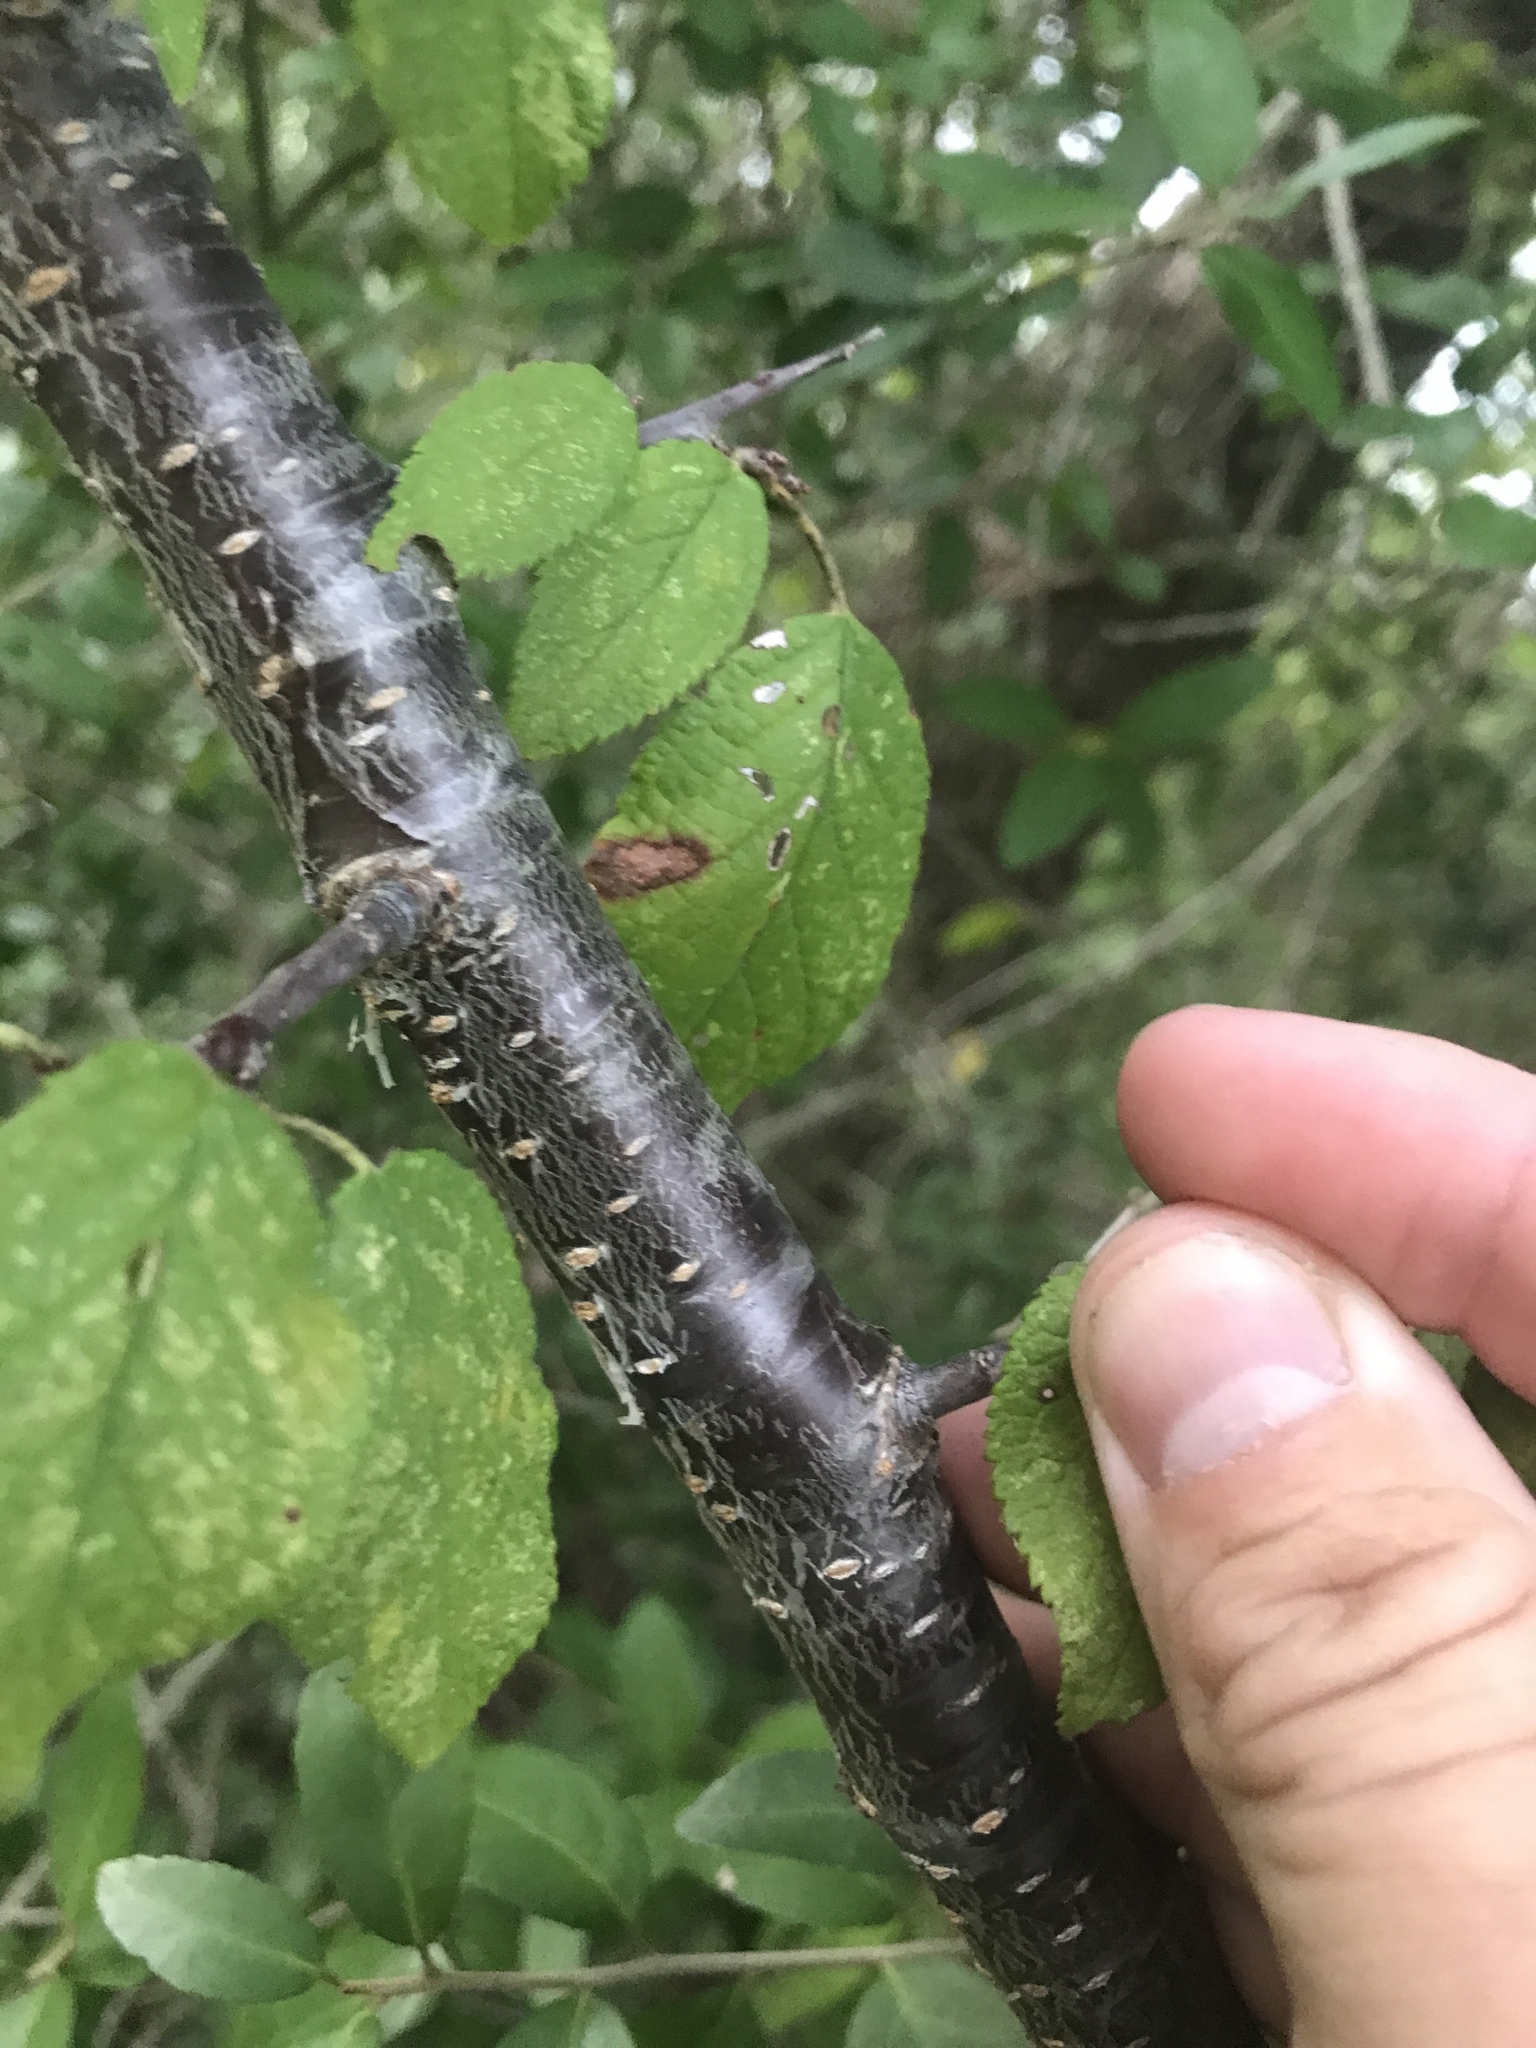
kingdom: Plantae
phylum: Tracheophyta
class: Magnoliopsida
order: Rosales
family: Rosaceae
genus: Prunus
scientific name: Prunus mexicana
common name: Mexican plum
